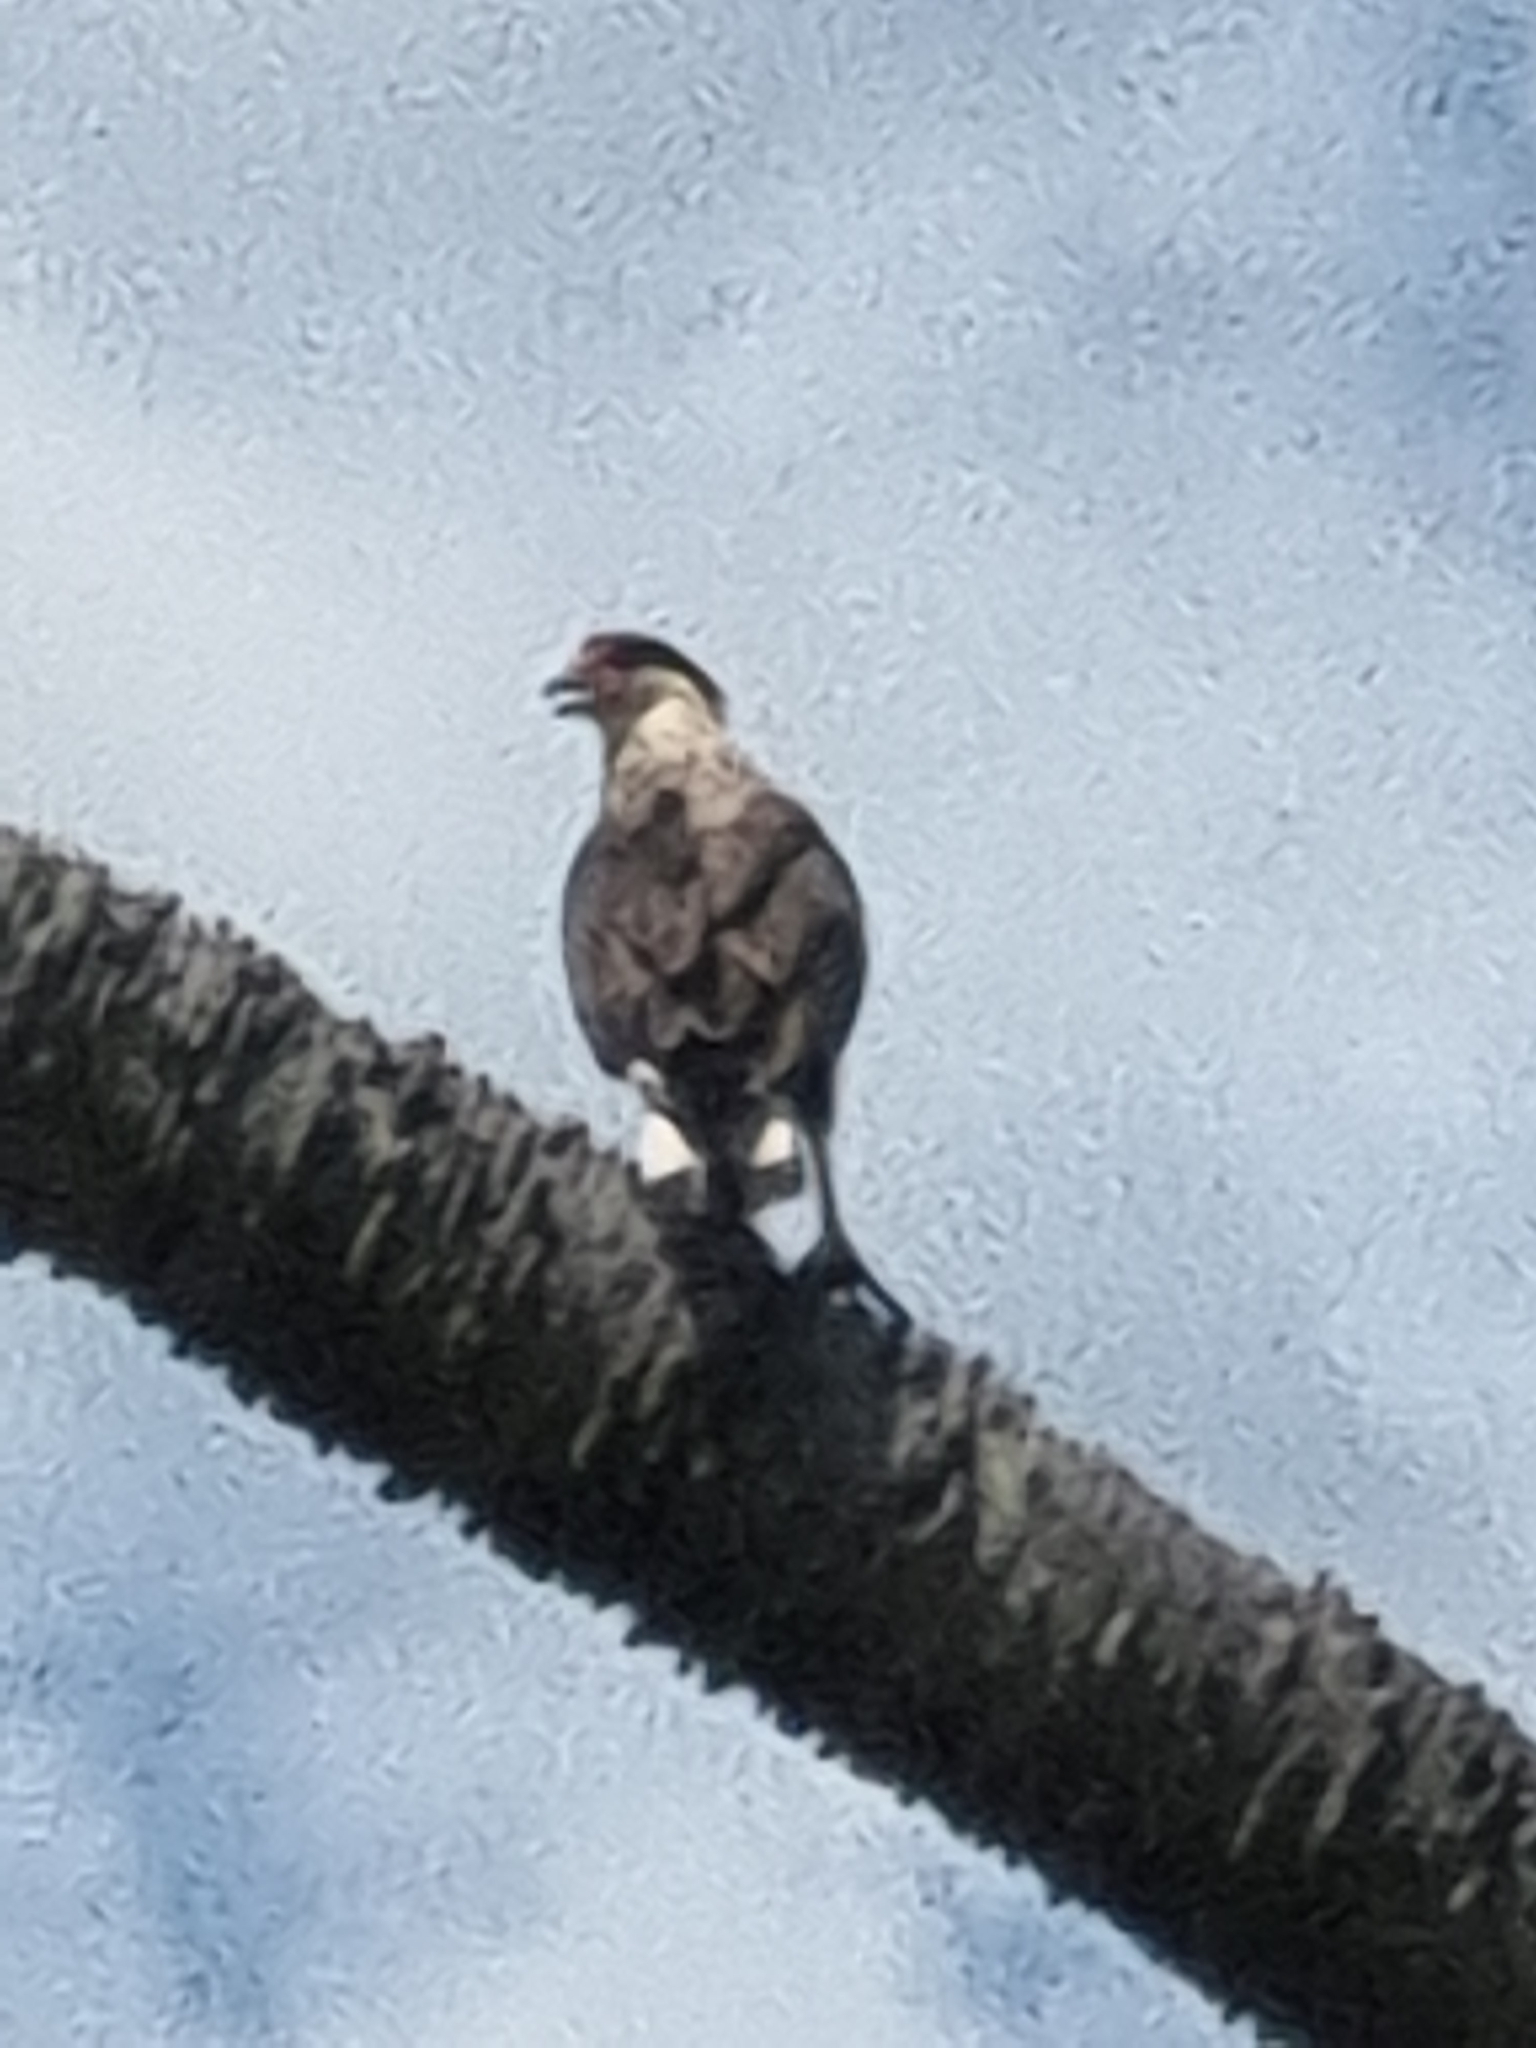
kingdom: Animalia
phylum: Chordata
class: Aves
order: Falconiformes
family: Falconidae
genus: Caracara
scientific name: Caracara plancus
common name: Southern caracara
